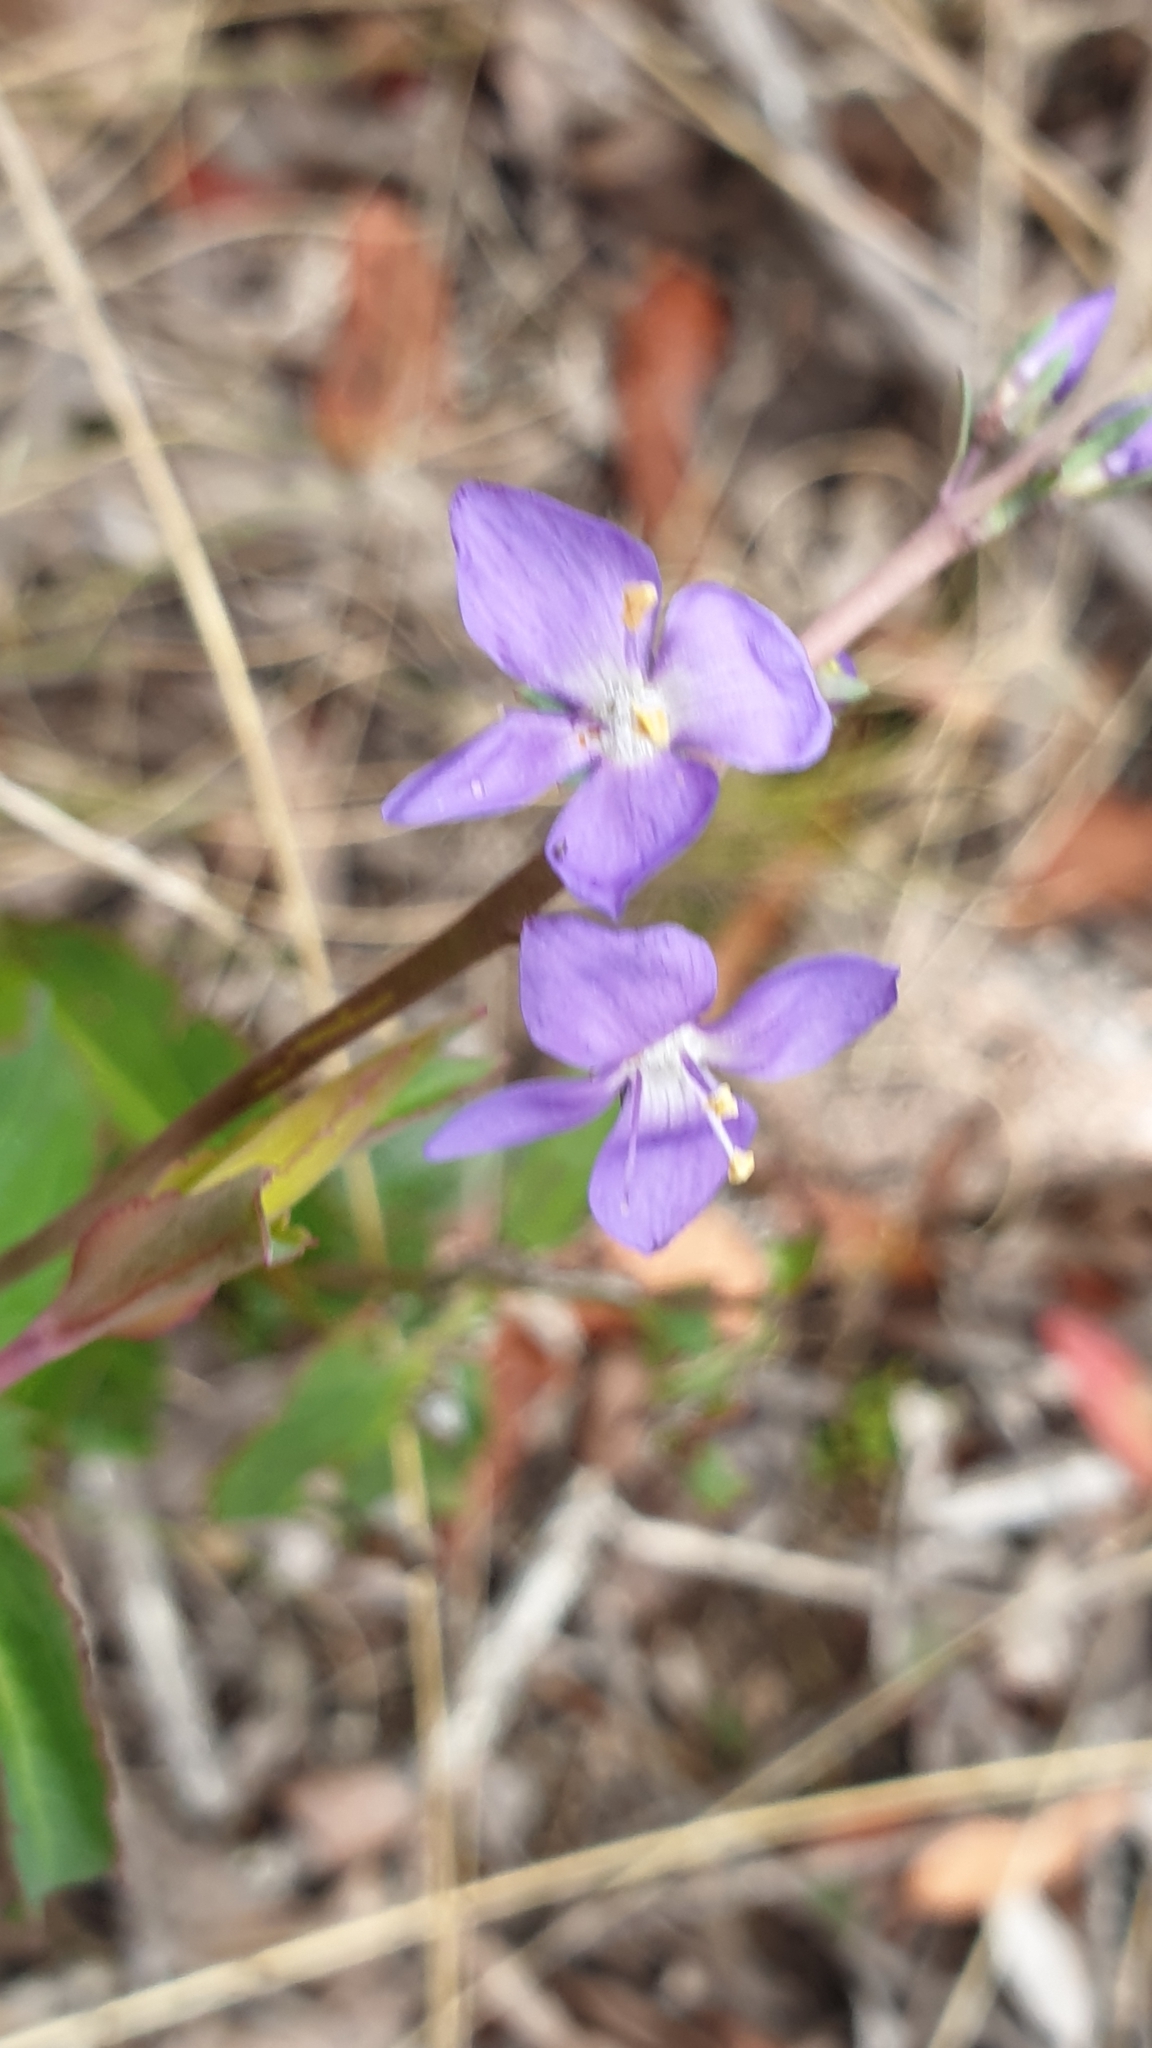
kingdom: Plantae
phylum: Tracheophyta
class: Magnoliopsida
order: Lamiales
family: Plantaginaceae
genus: Veronica
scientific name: Veronica arcuata
